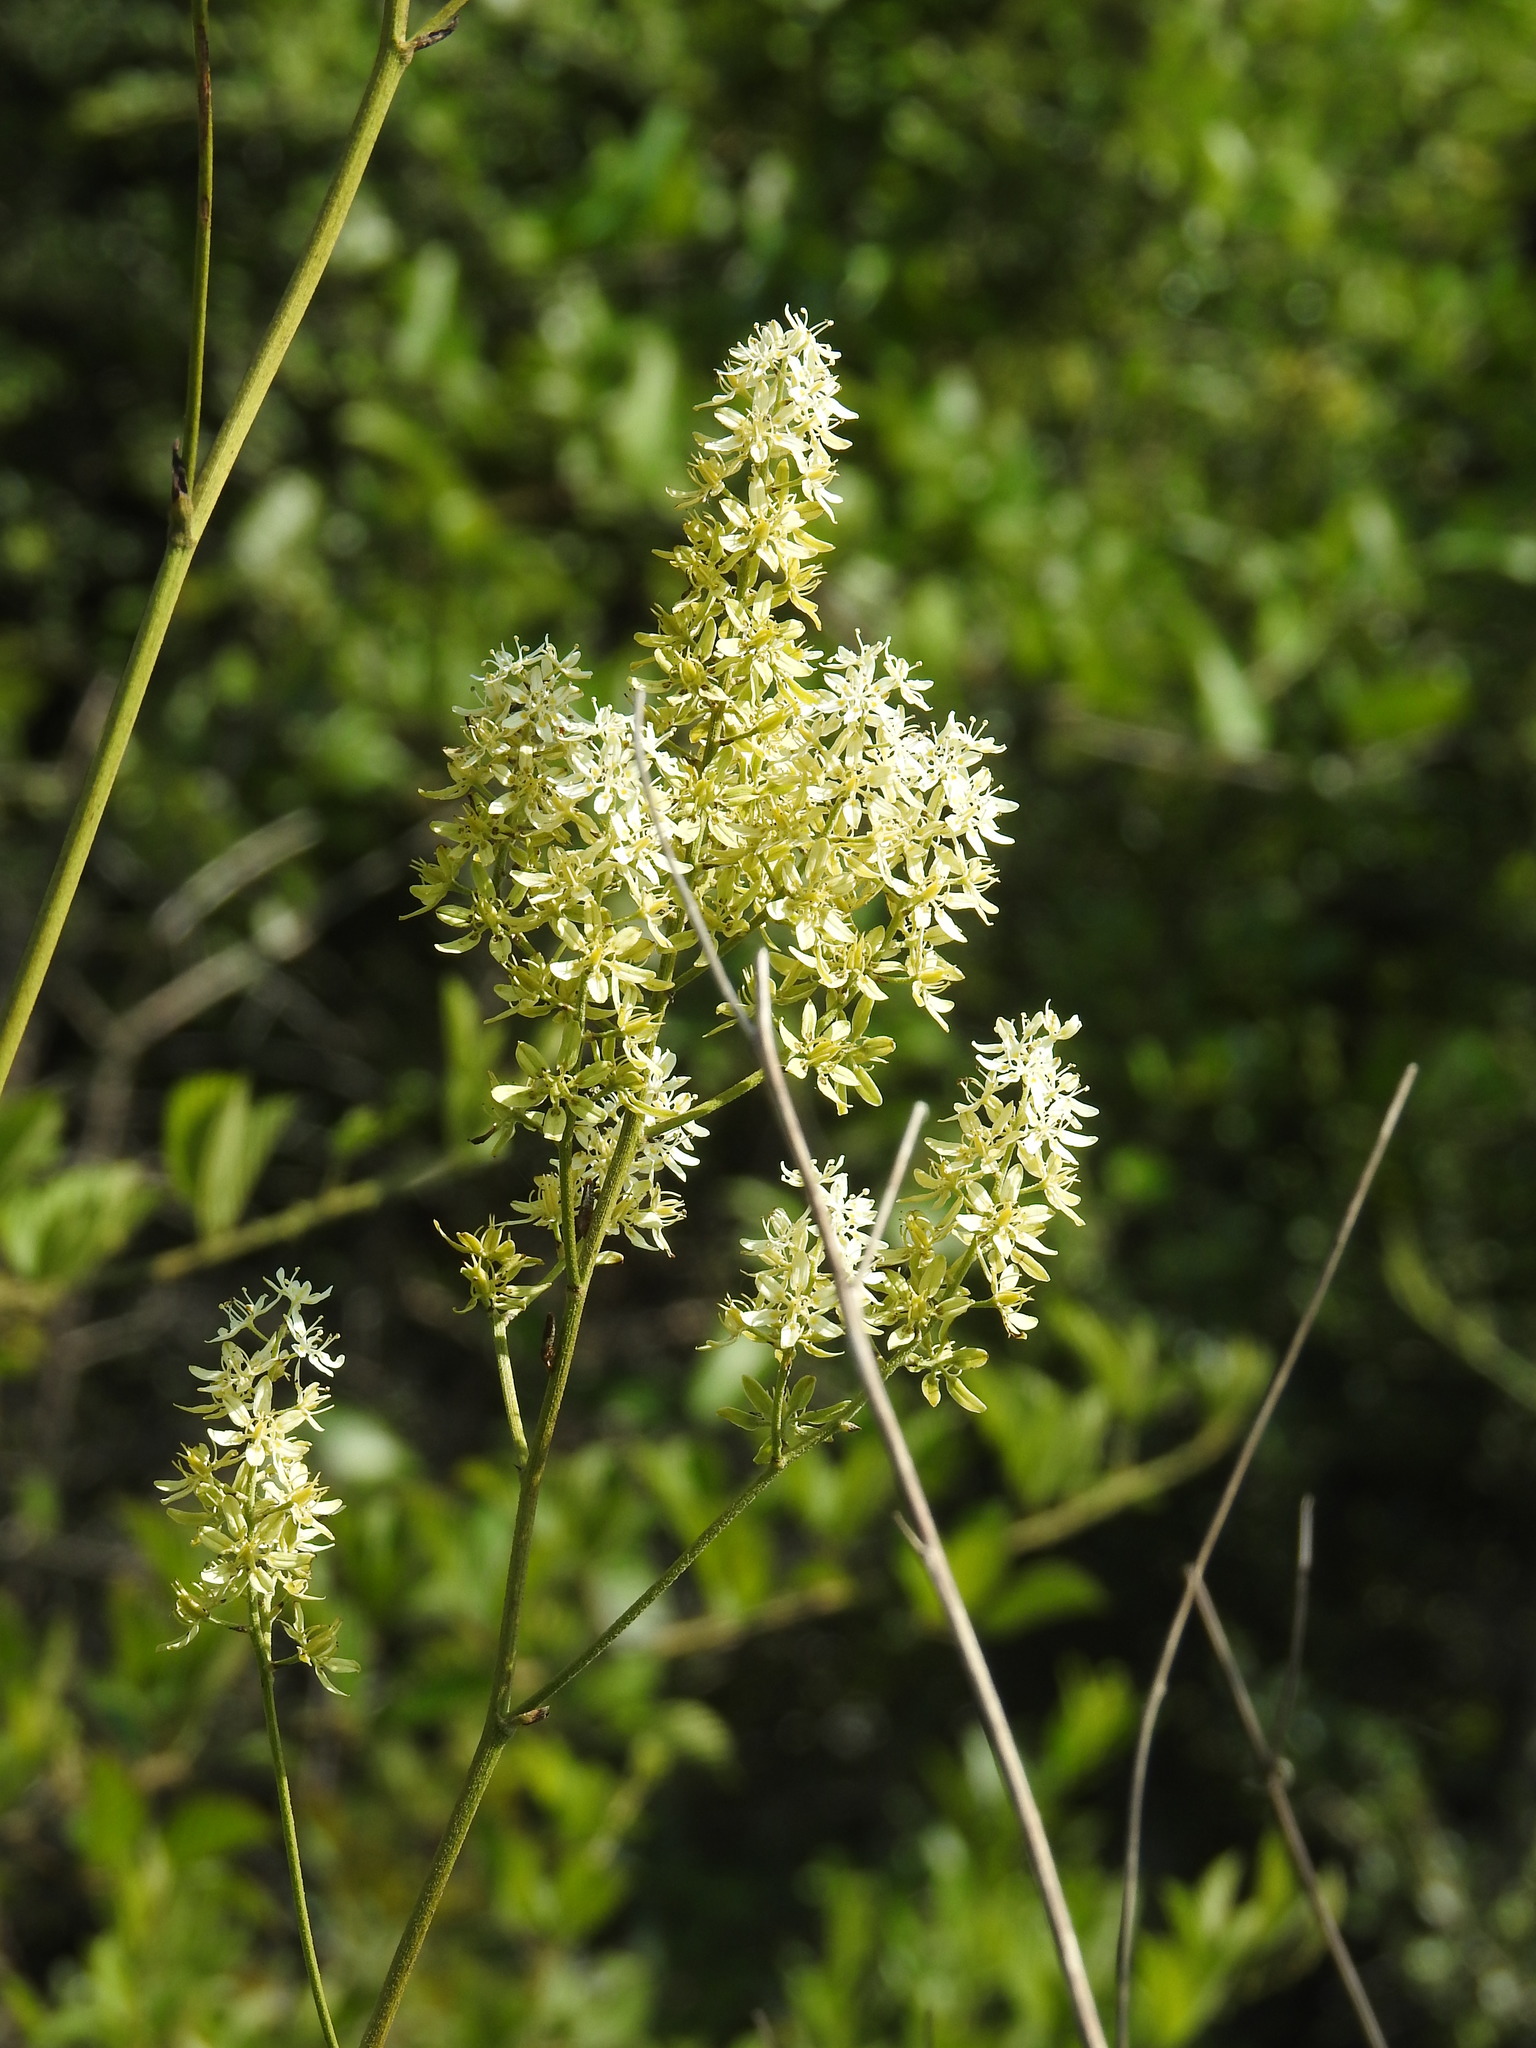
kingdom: Plantae
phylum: Tracheophyta
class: Liliopsida
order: Liliales
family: Melanthiaceae
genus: Melanthium
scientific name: Melanthium virginicum
